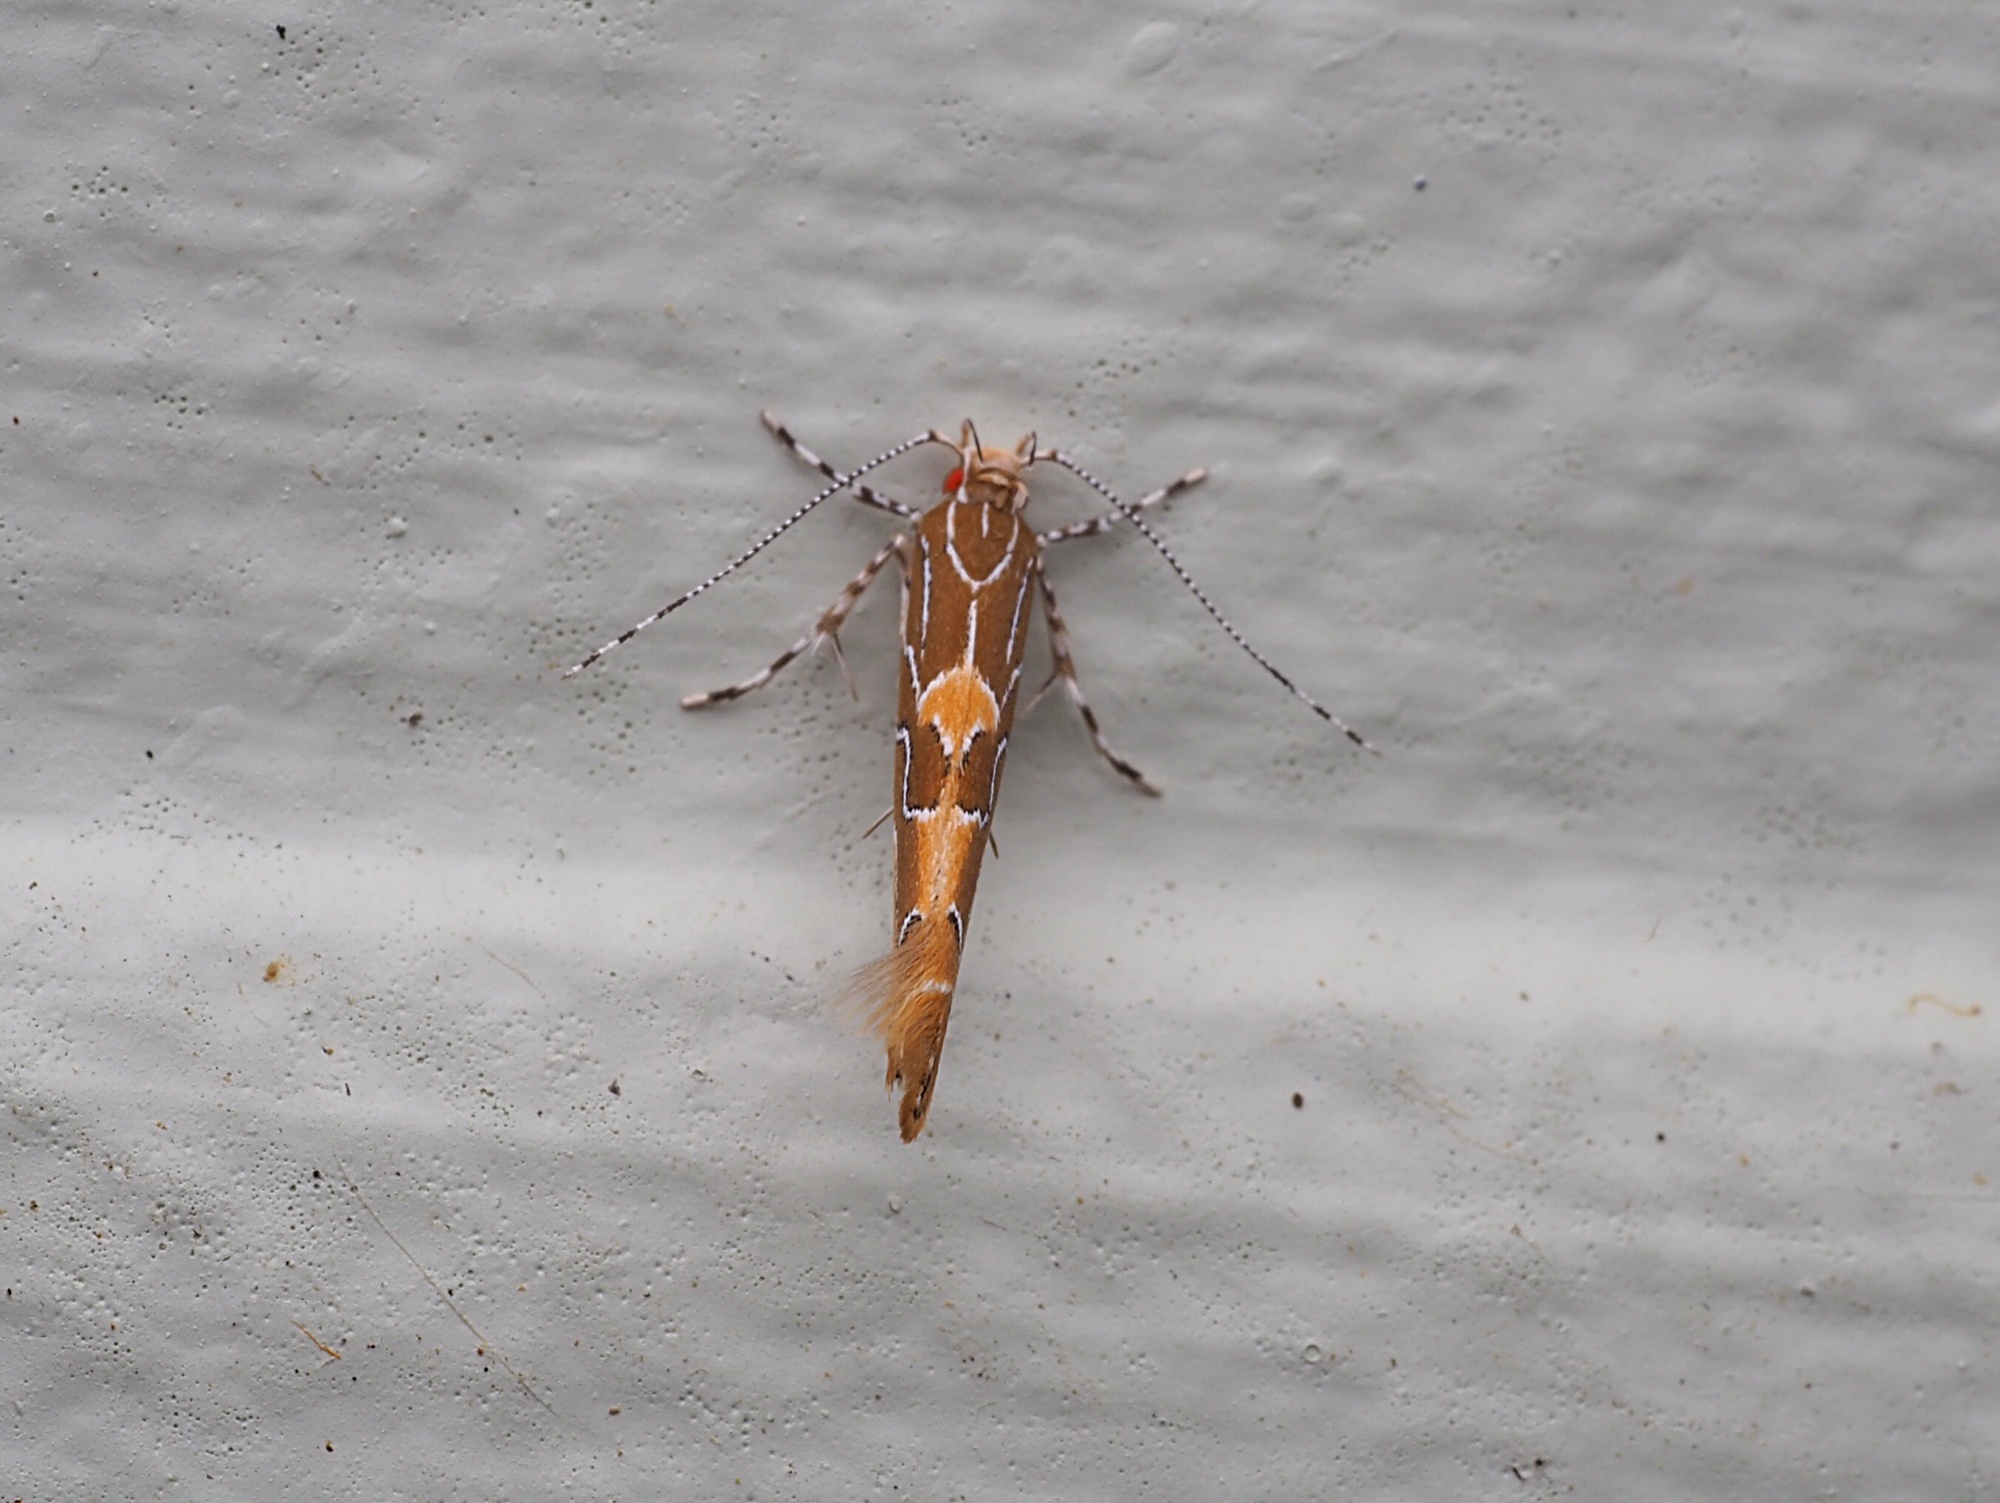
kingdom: Animalia
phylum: Arthropoda
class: Insecta
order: Lepidoptera
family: Cosmopterigidae
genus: Pyroderces
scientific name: Pyroderces apparitella
